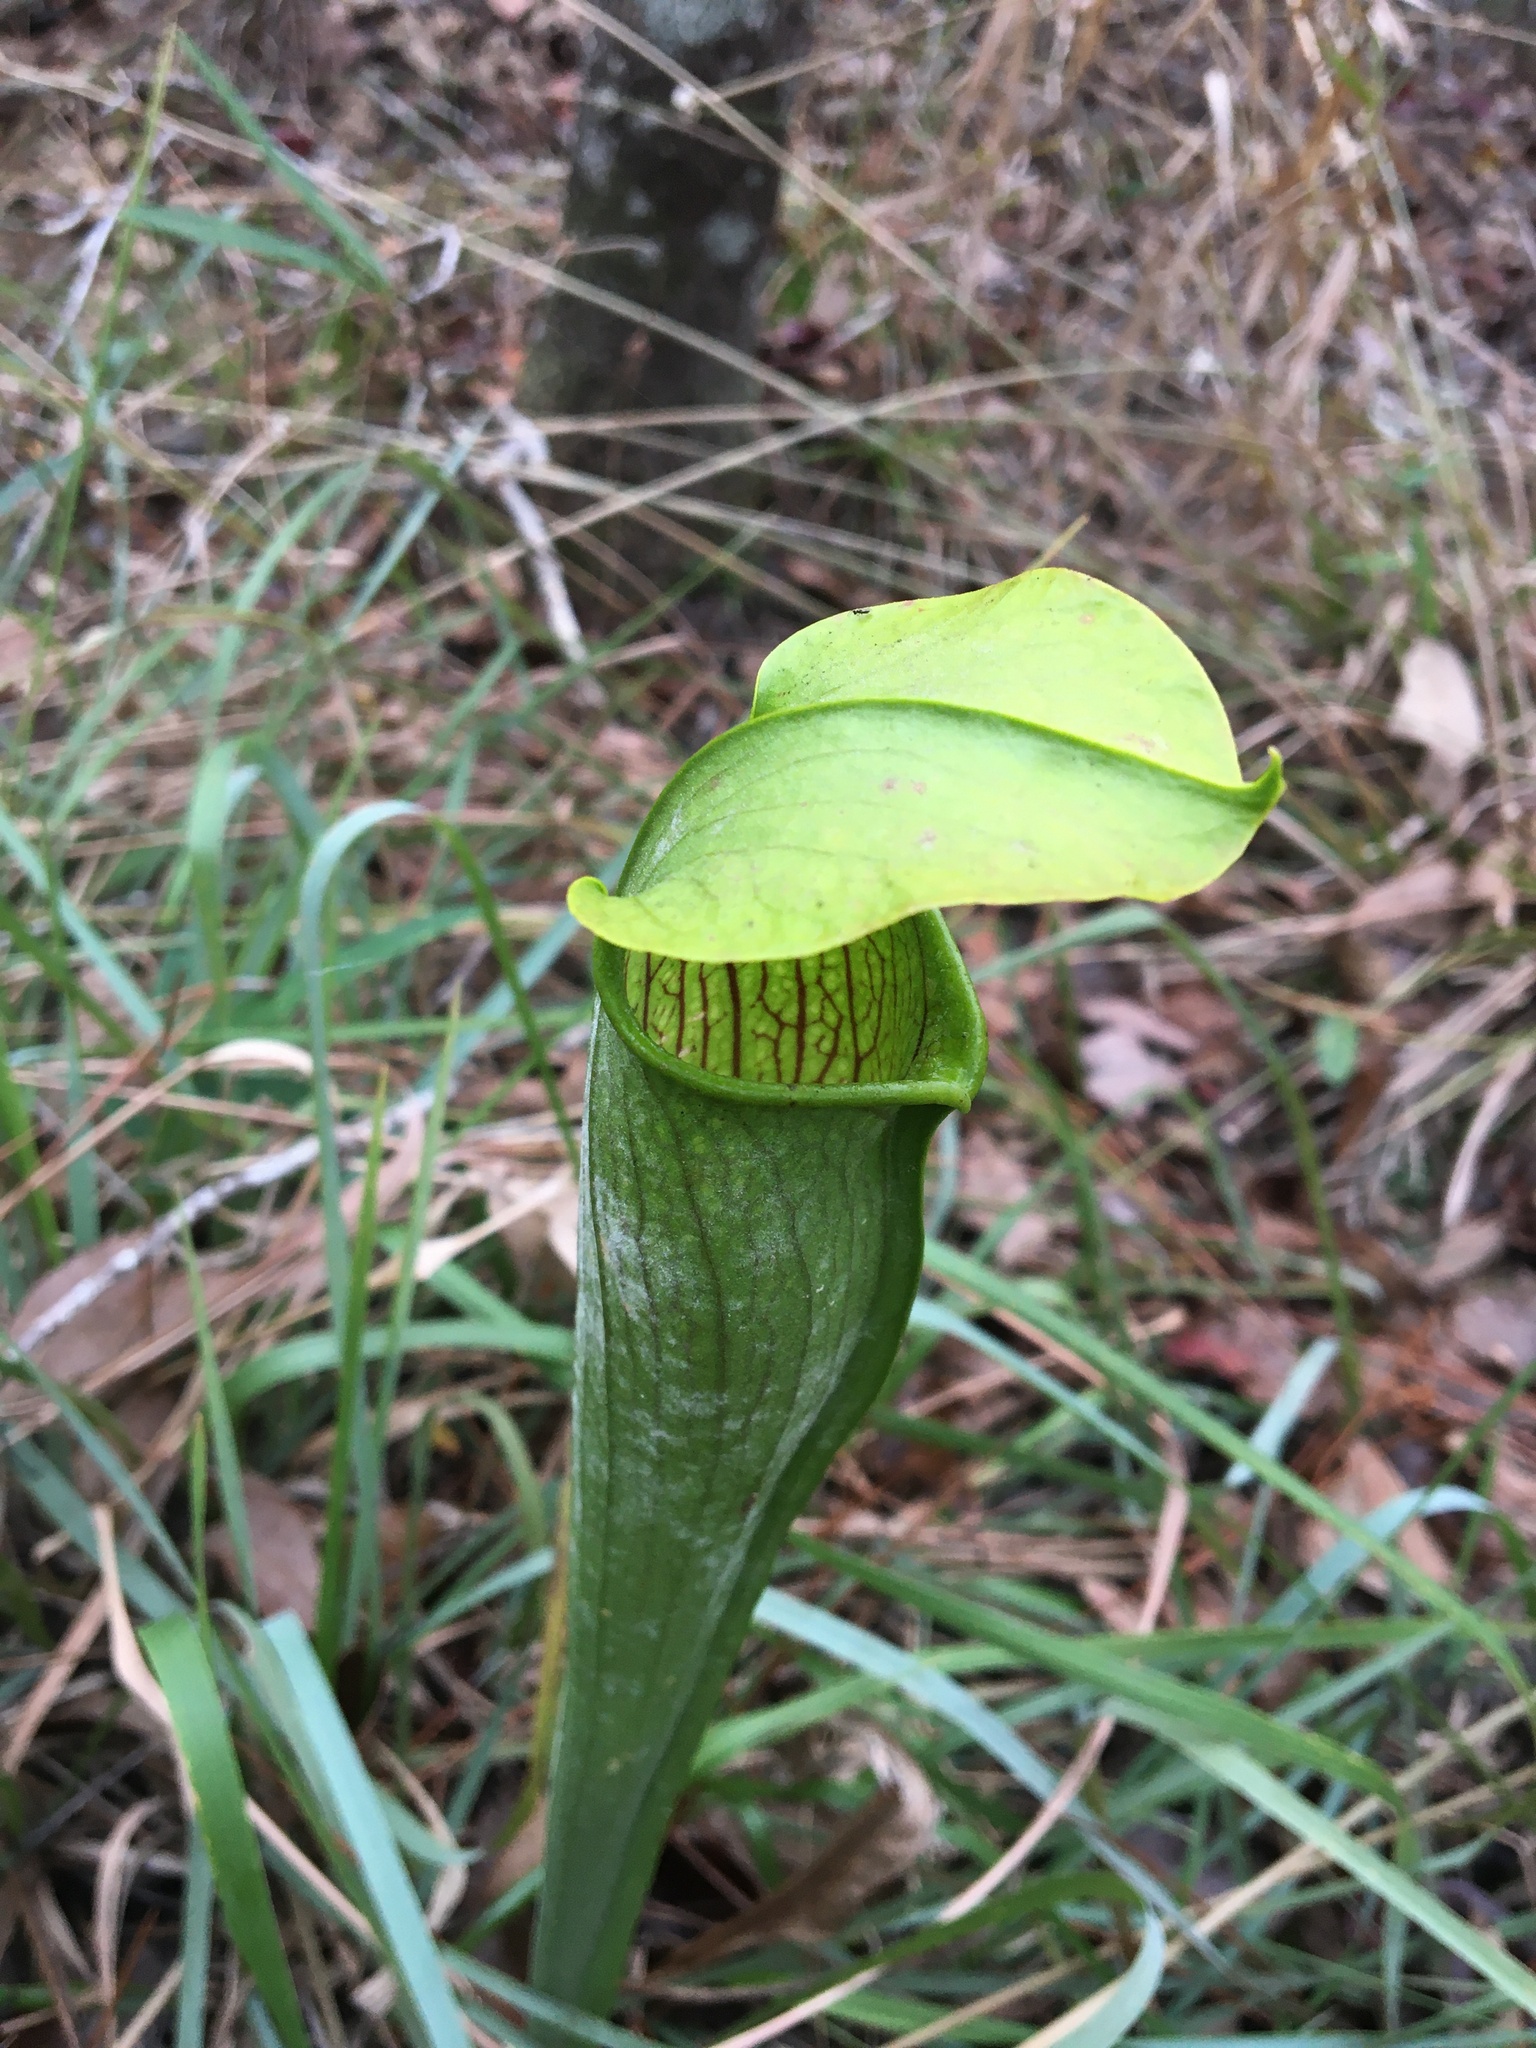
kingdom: Plantae
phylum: Tracheophyta
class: Magnoliopsida
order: Ericales
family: Sarraceniaceae
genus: Sarracenia
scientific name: Sarracenia alata
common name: Yellow trumpets
